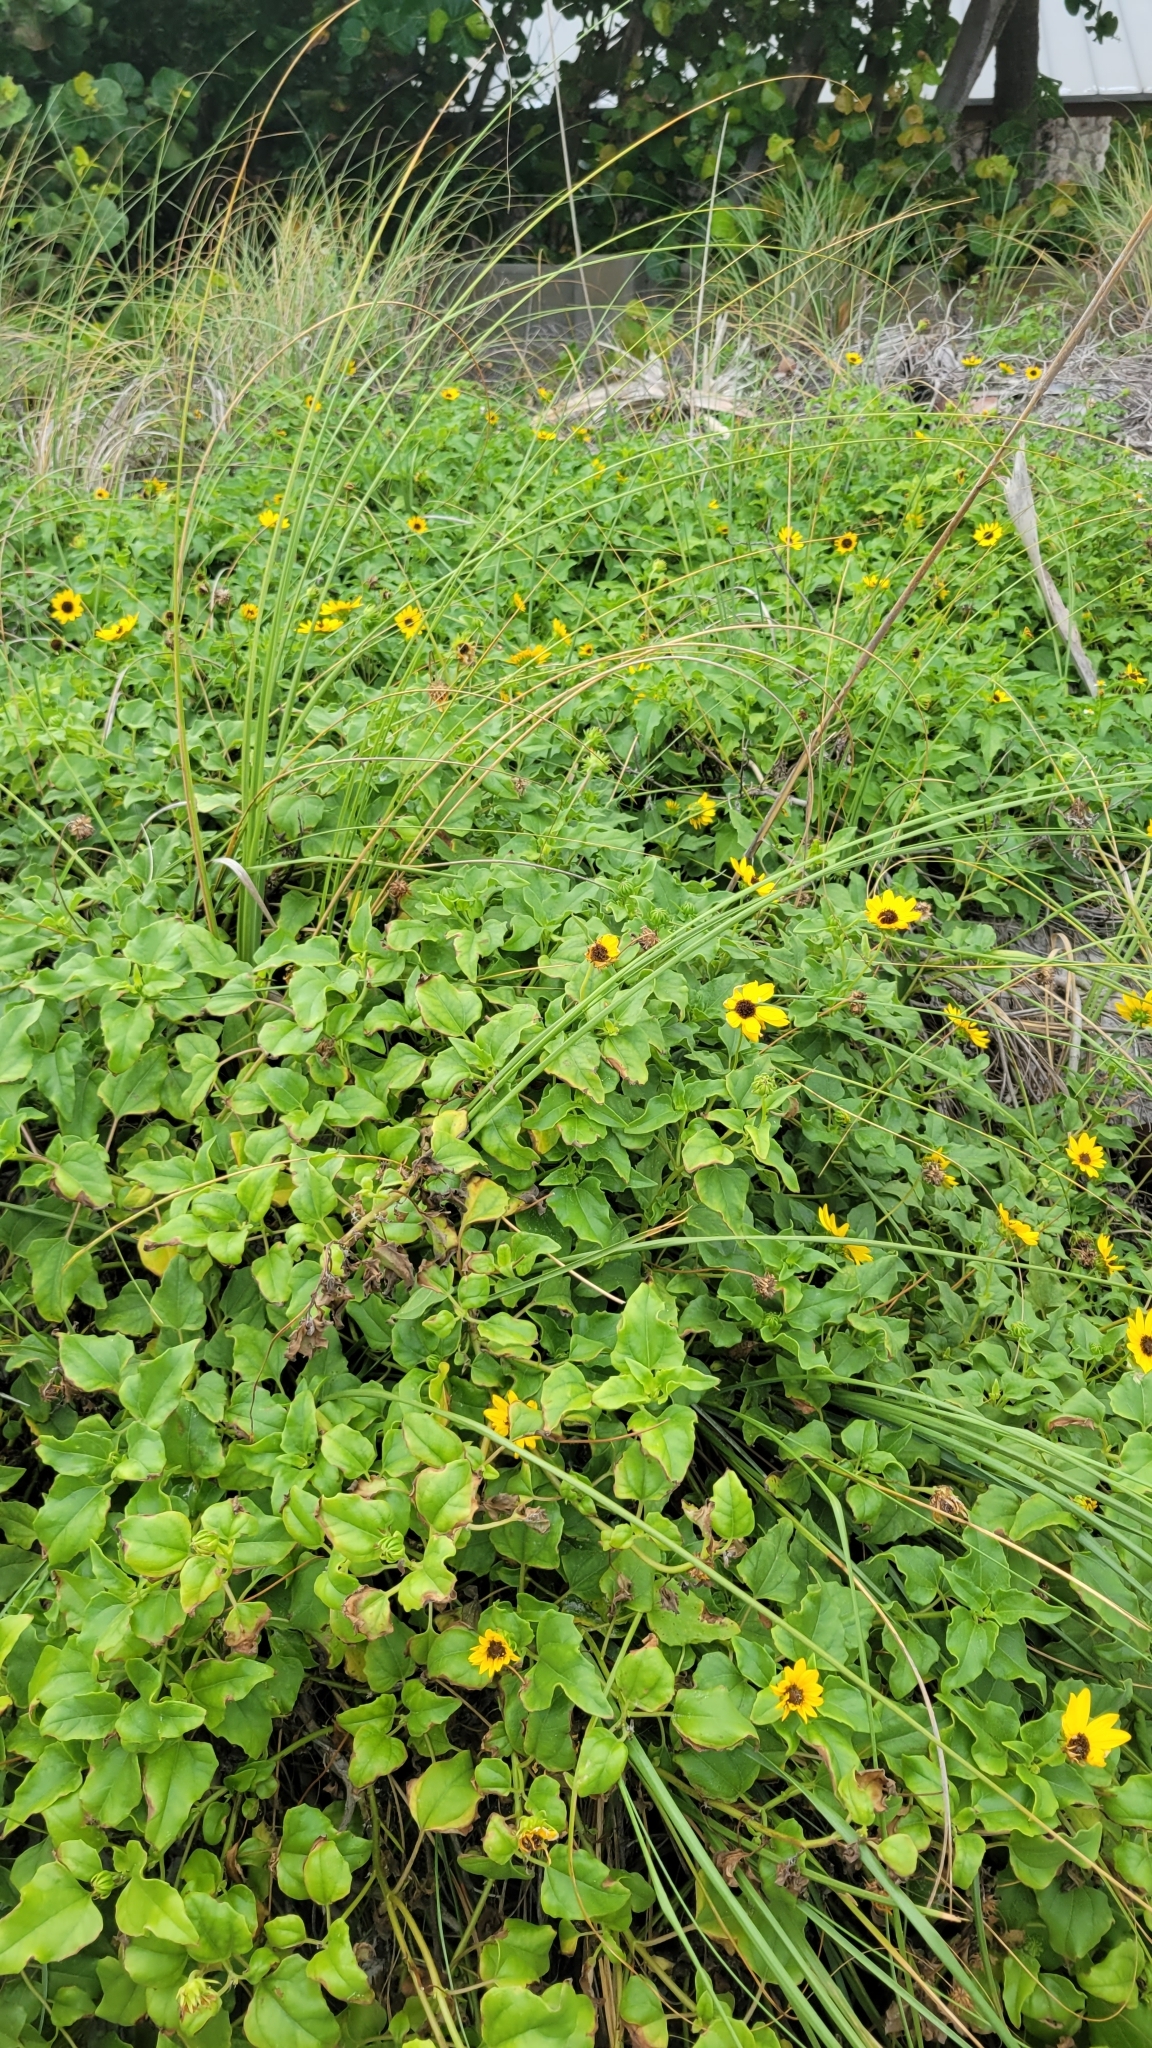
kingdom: Plantae
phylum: Tracheophyta
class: Magnoliopsida
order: Asterales
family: Asteraceae
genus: Helianthus
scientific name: Helianthus debilis
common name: Weak sunflower
